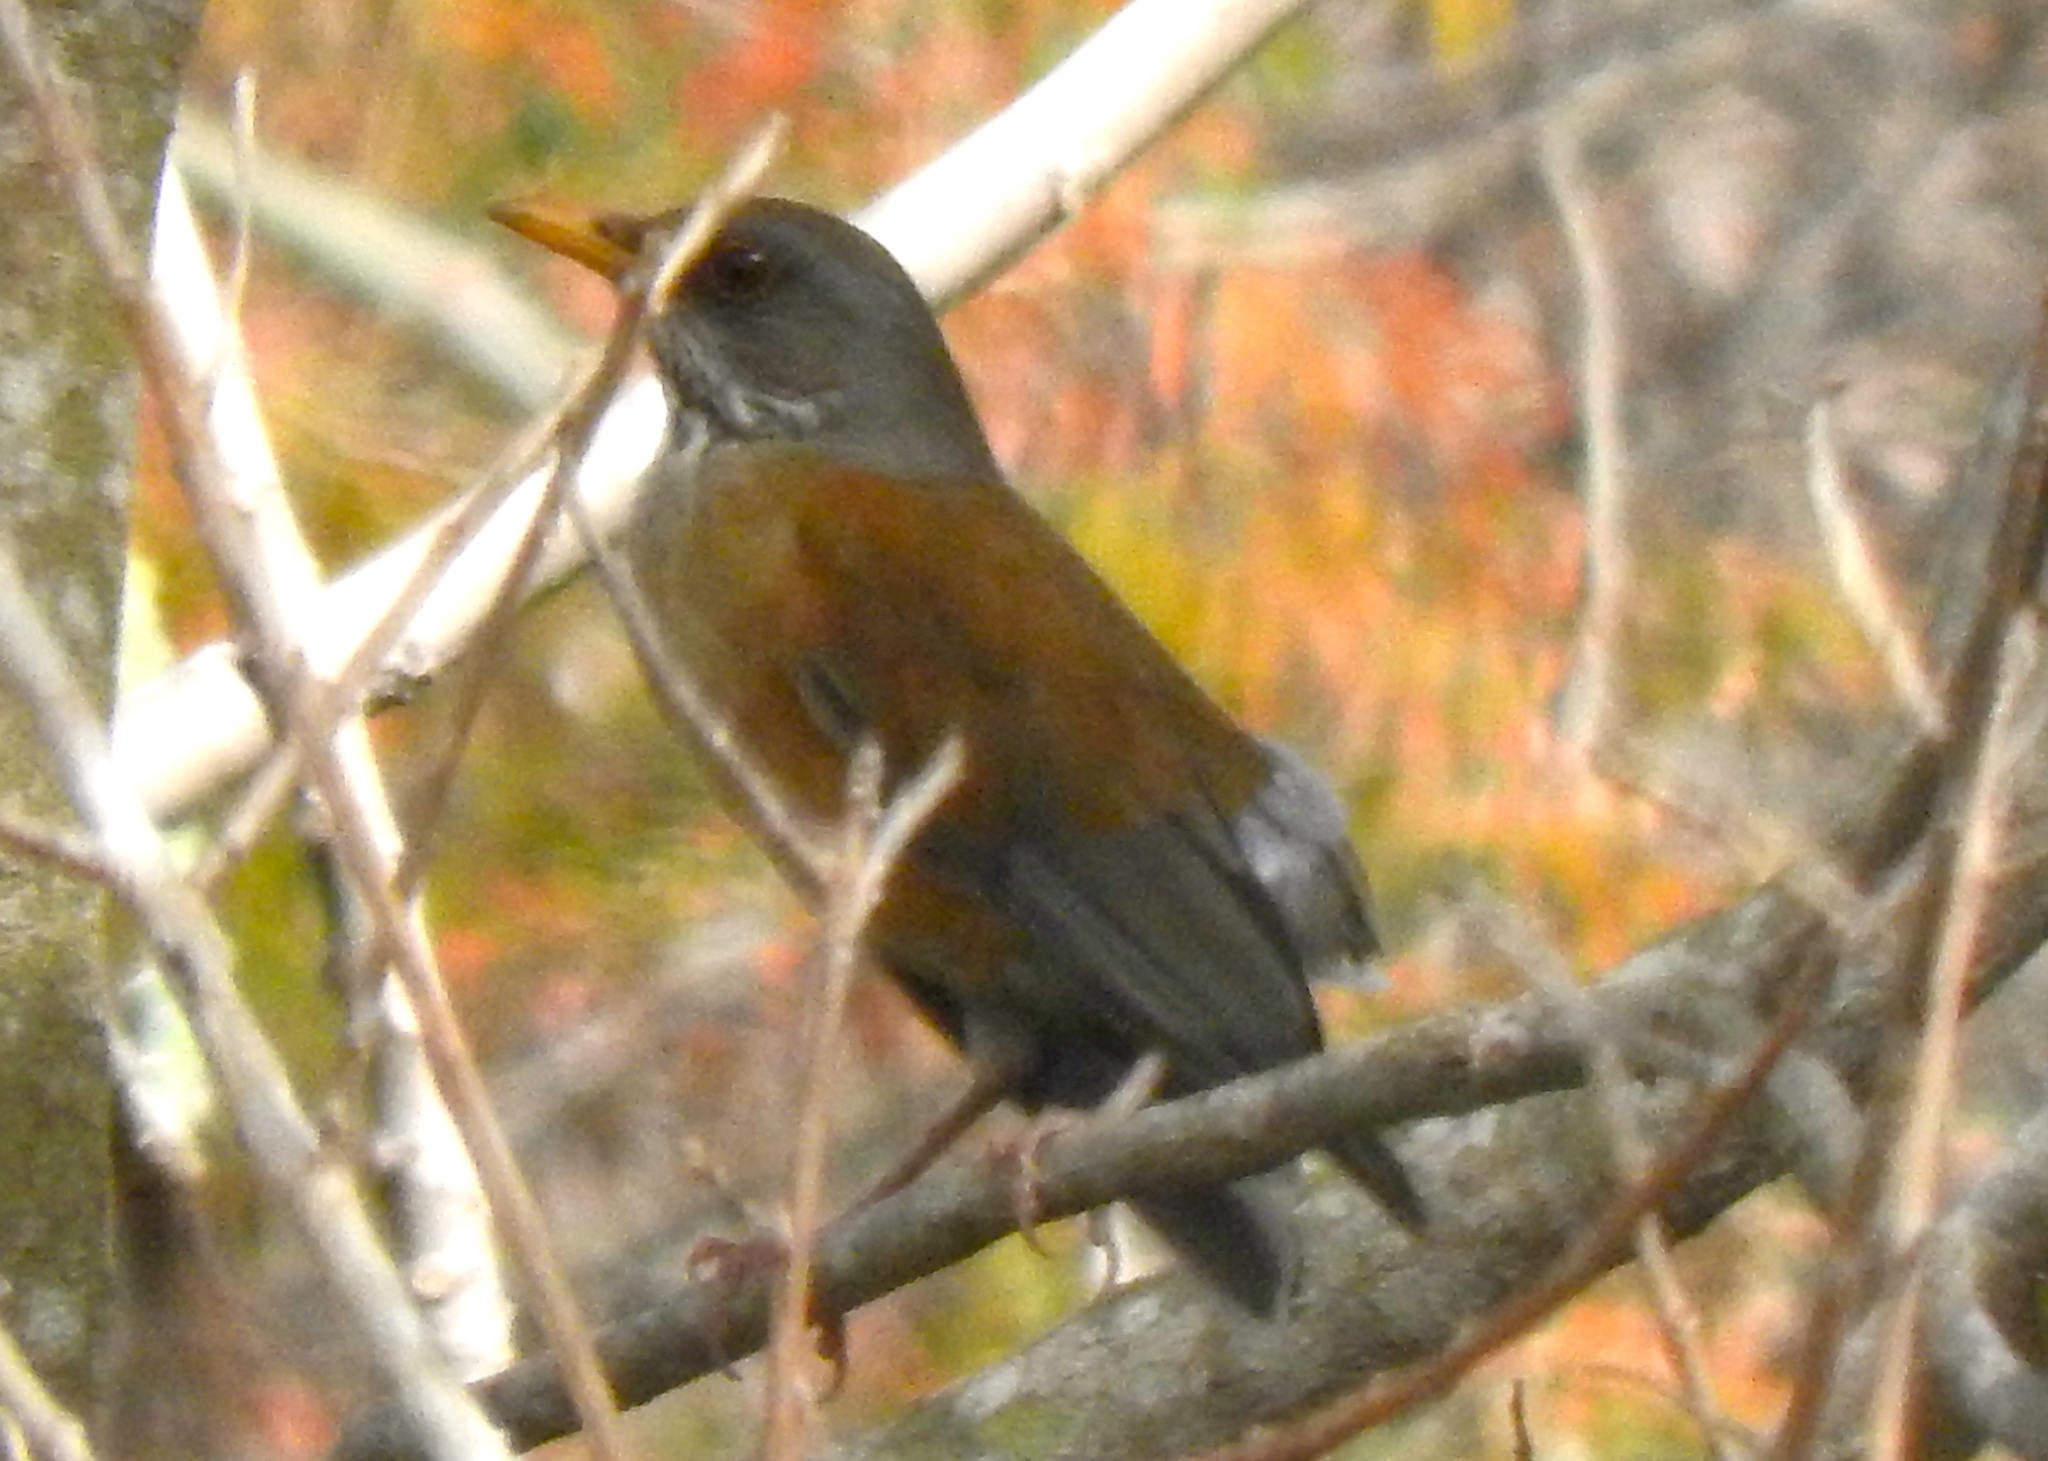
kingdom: Animalia
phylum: Chordata
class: Aves
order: Passeriformes
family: Turdidae
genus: Turdus
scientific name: Turdus rufopalliatus
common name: Rufous-backed robin
